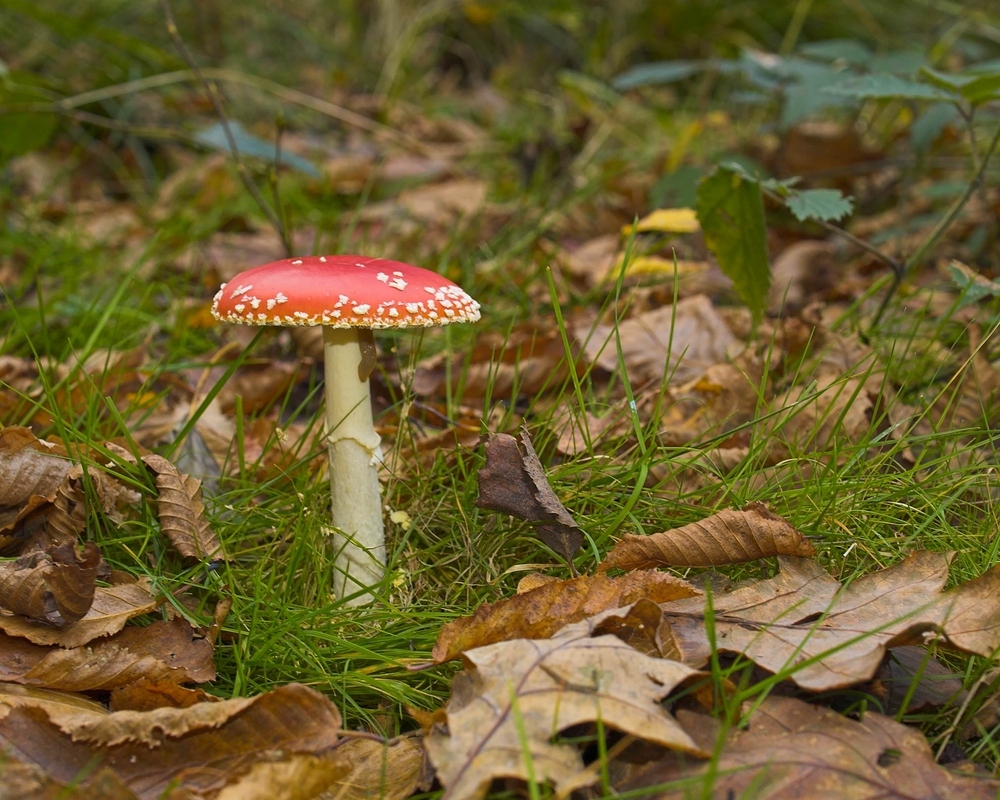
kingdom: Fungi
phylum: Basidiomycota
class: Agaricomycetes
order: Agaricales
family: Amanitaceae
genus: Amanita
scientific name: Amanita muscaria
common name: Fly agaric
